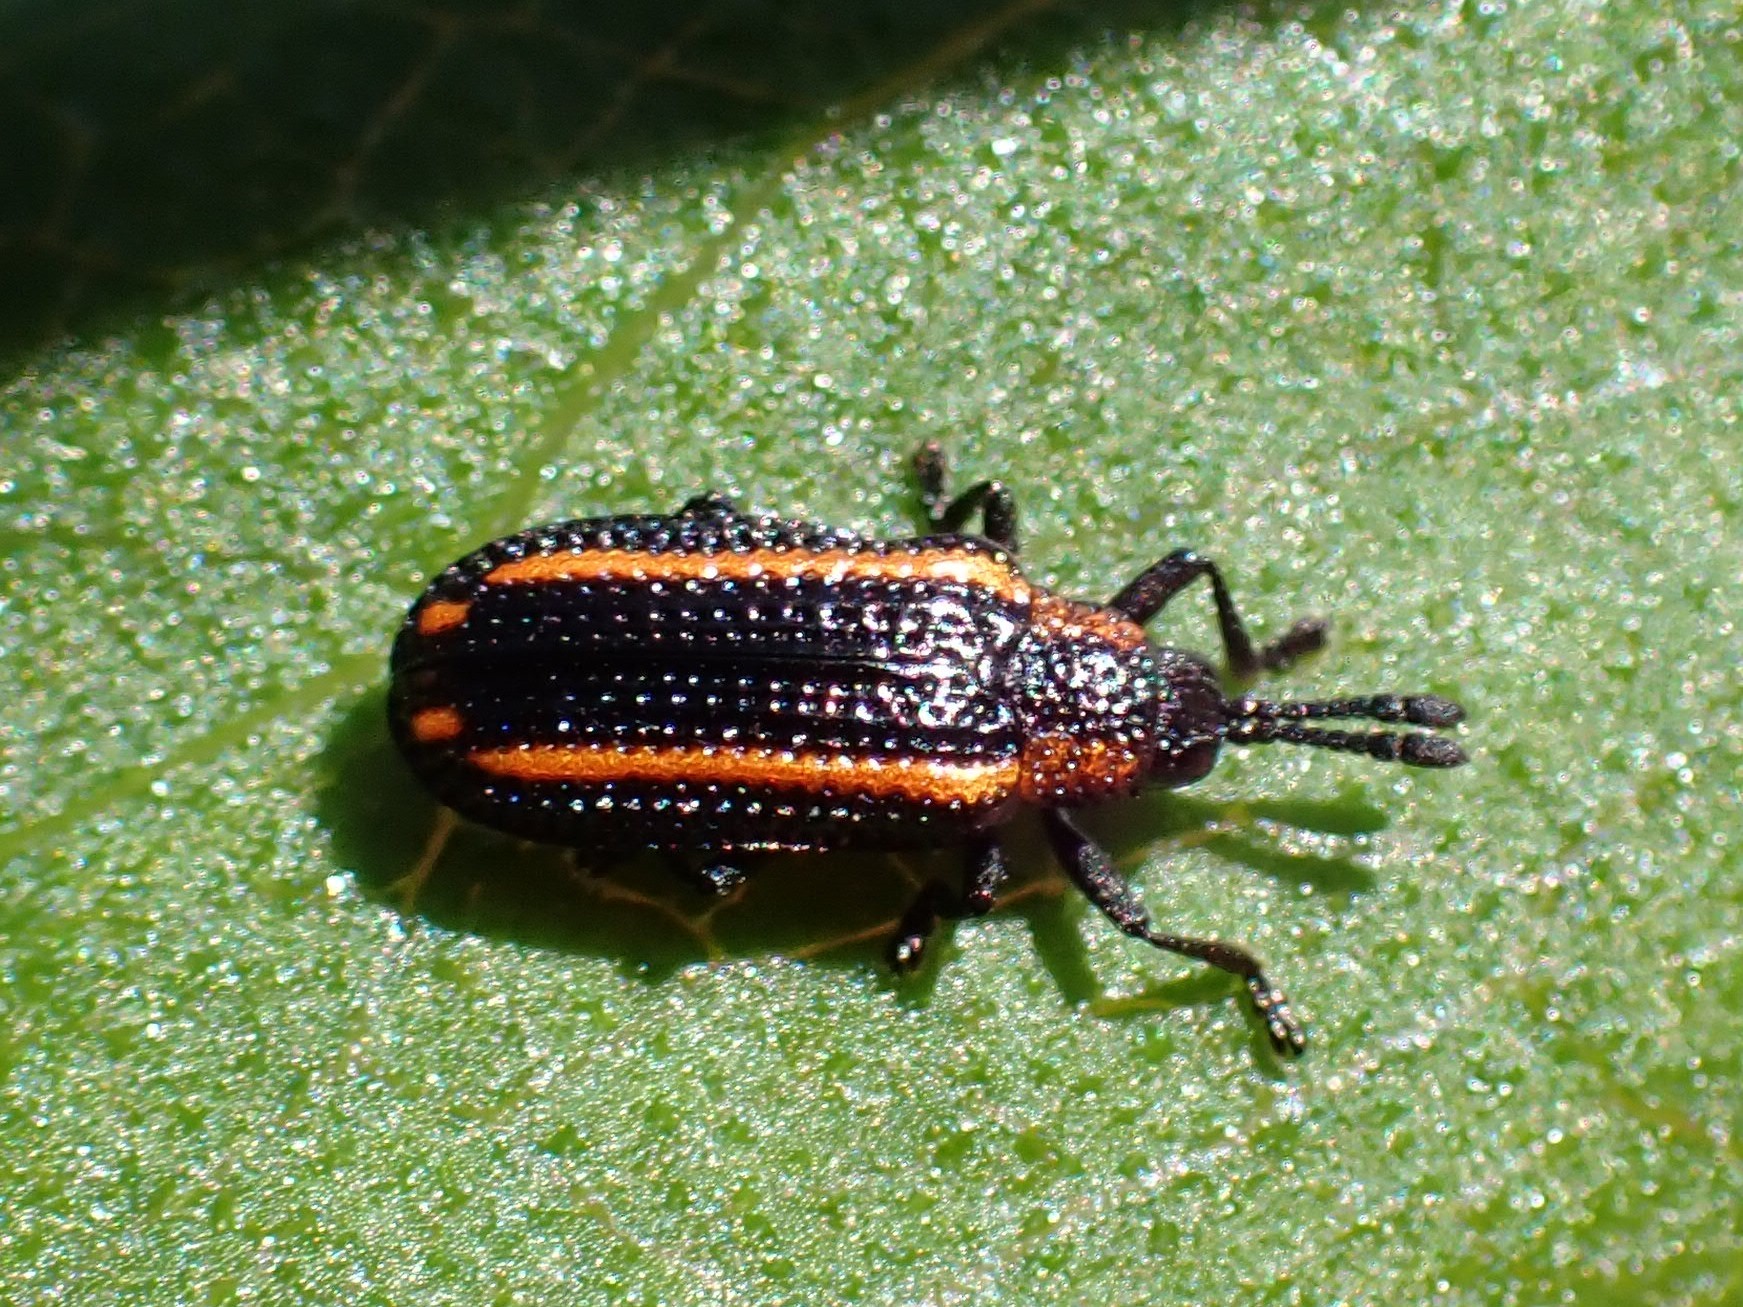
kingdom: Animalia
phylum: Arthropoda
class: Insecta
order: Coleoptera
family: Chrysomelidae
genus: Microrhopala
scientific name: Microrhopala xerene
